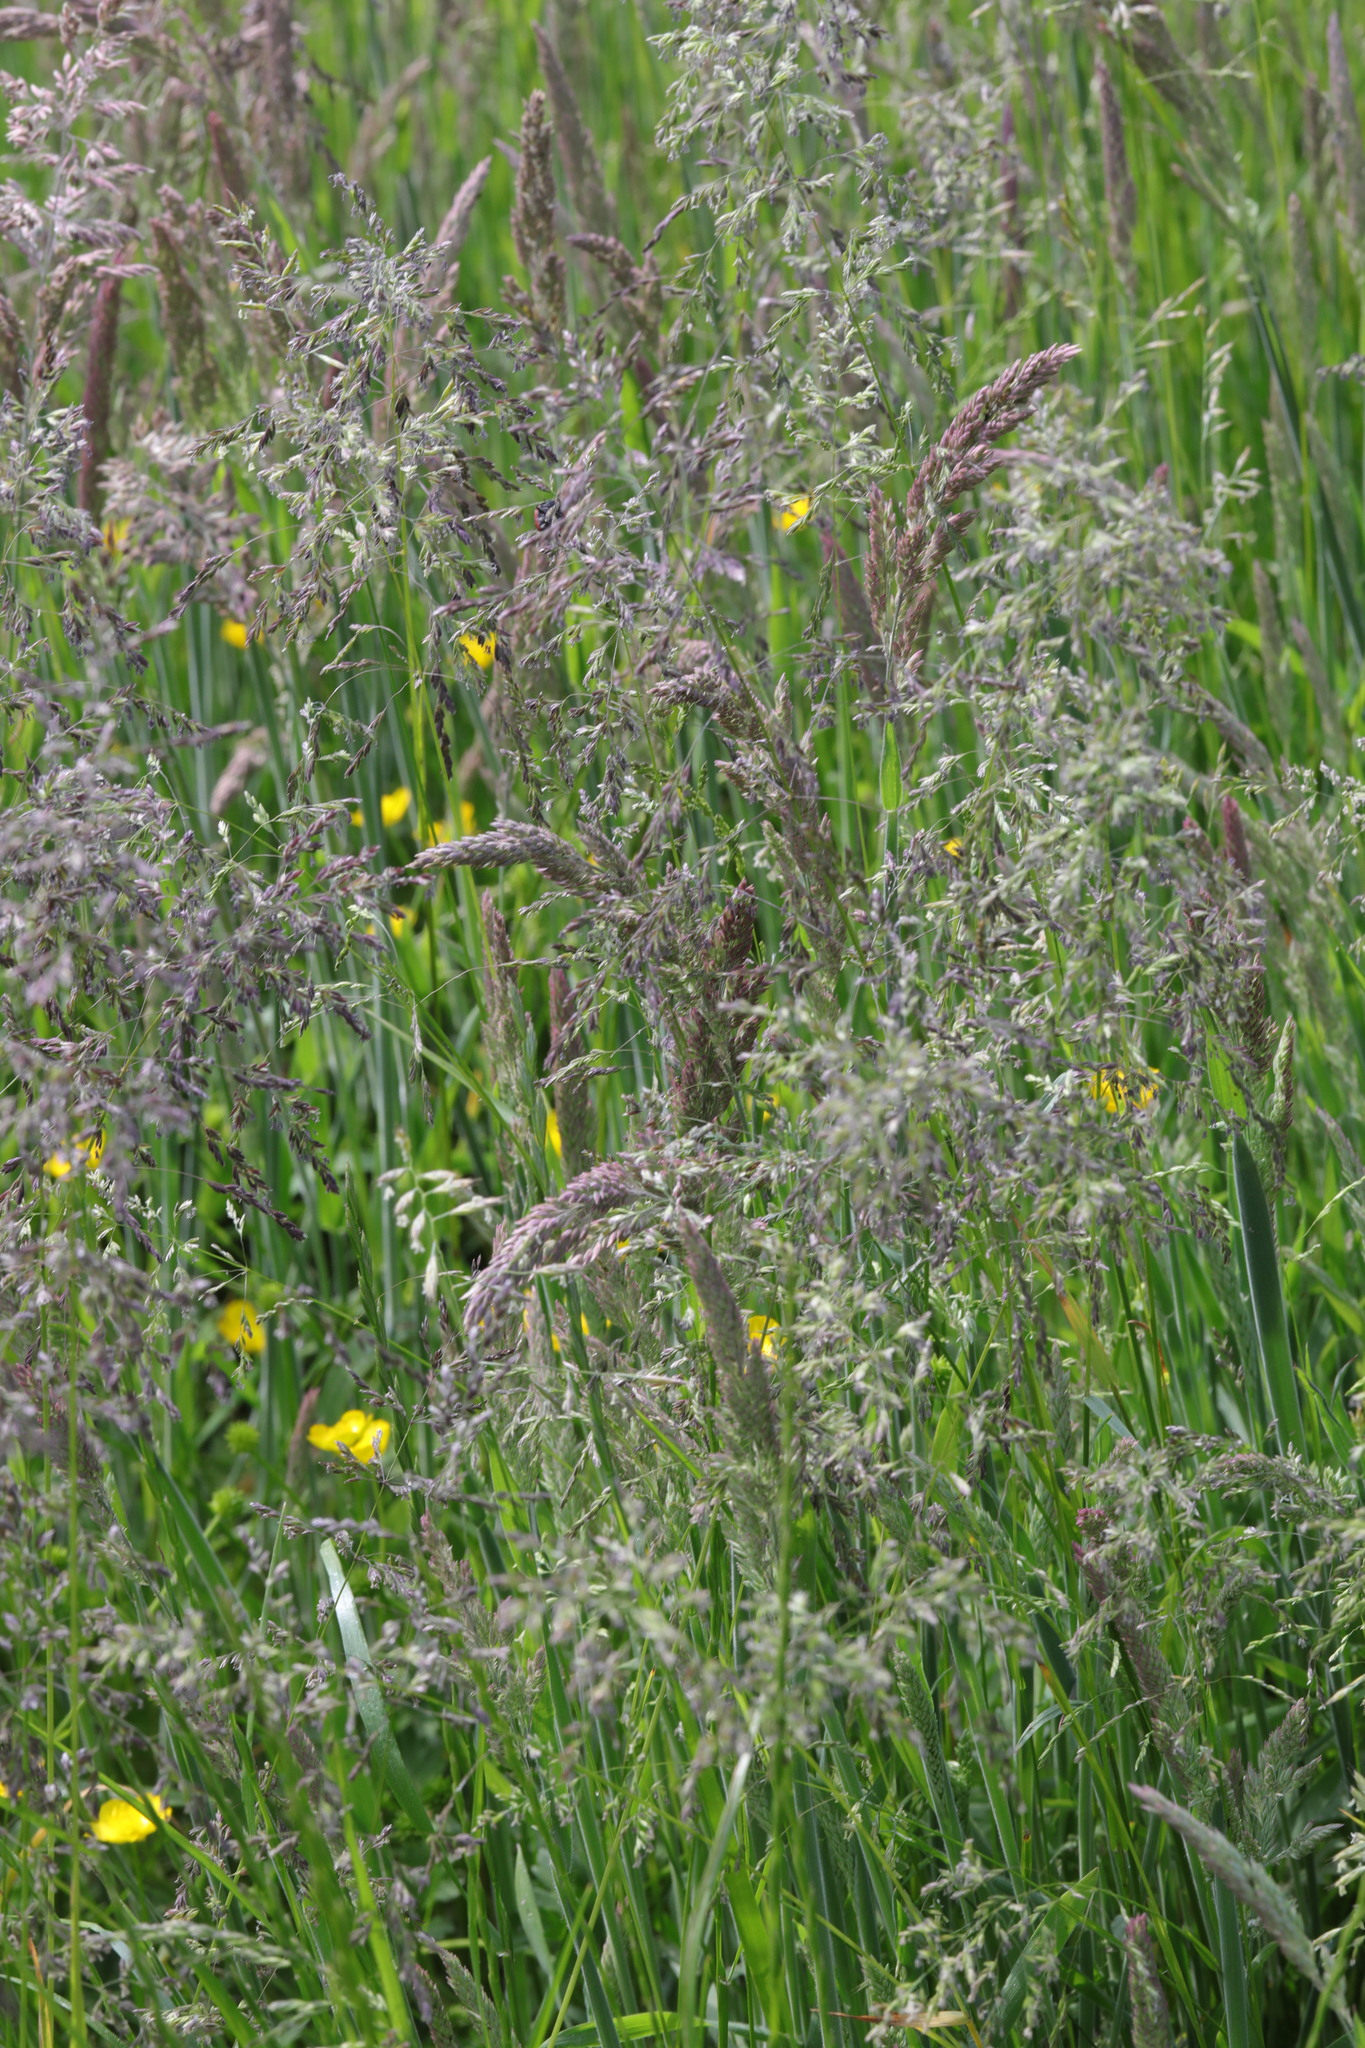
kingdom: Plantae
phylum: Tracheophyta
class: Liliopsida
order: Poales
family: Poaceae
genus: Holcus
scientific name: Holcus lanatus
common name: Yorkshire-fog
